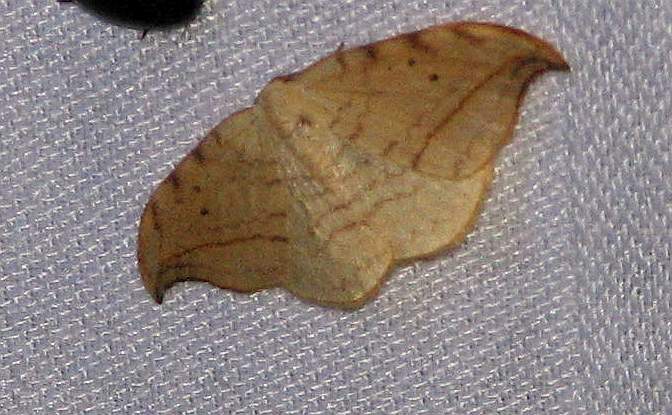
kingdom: Animalia
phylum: Arthropoda
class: Insecta
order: Lepidoptera
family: Drepanidae
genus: Drepana
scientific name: Drepana arcuata
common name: Arched hooktip moth
